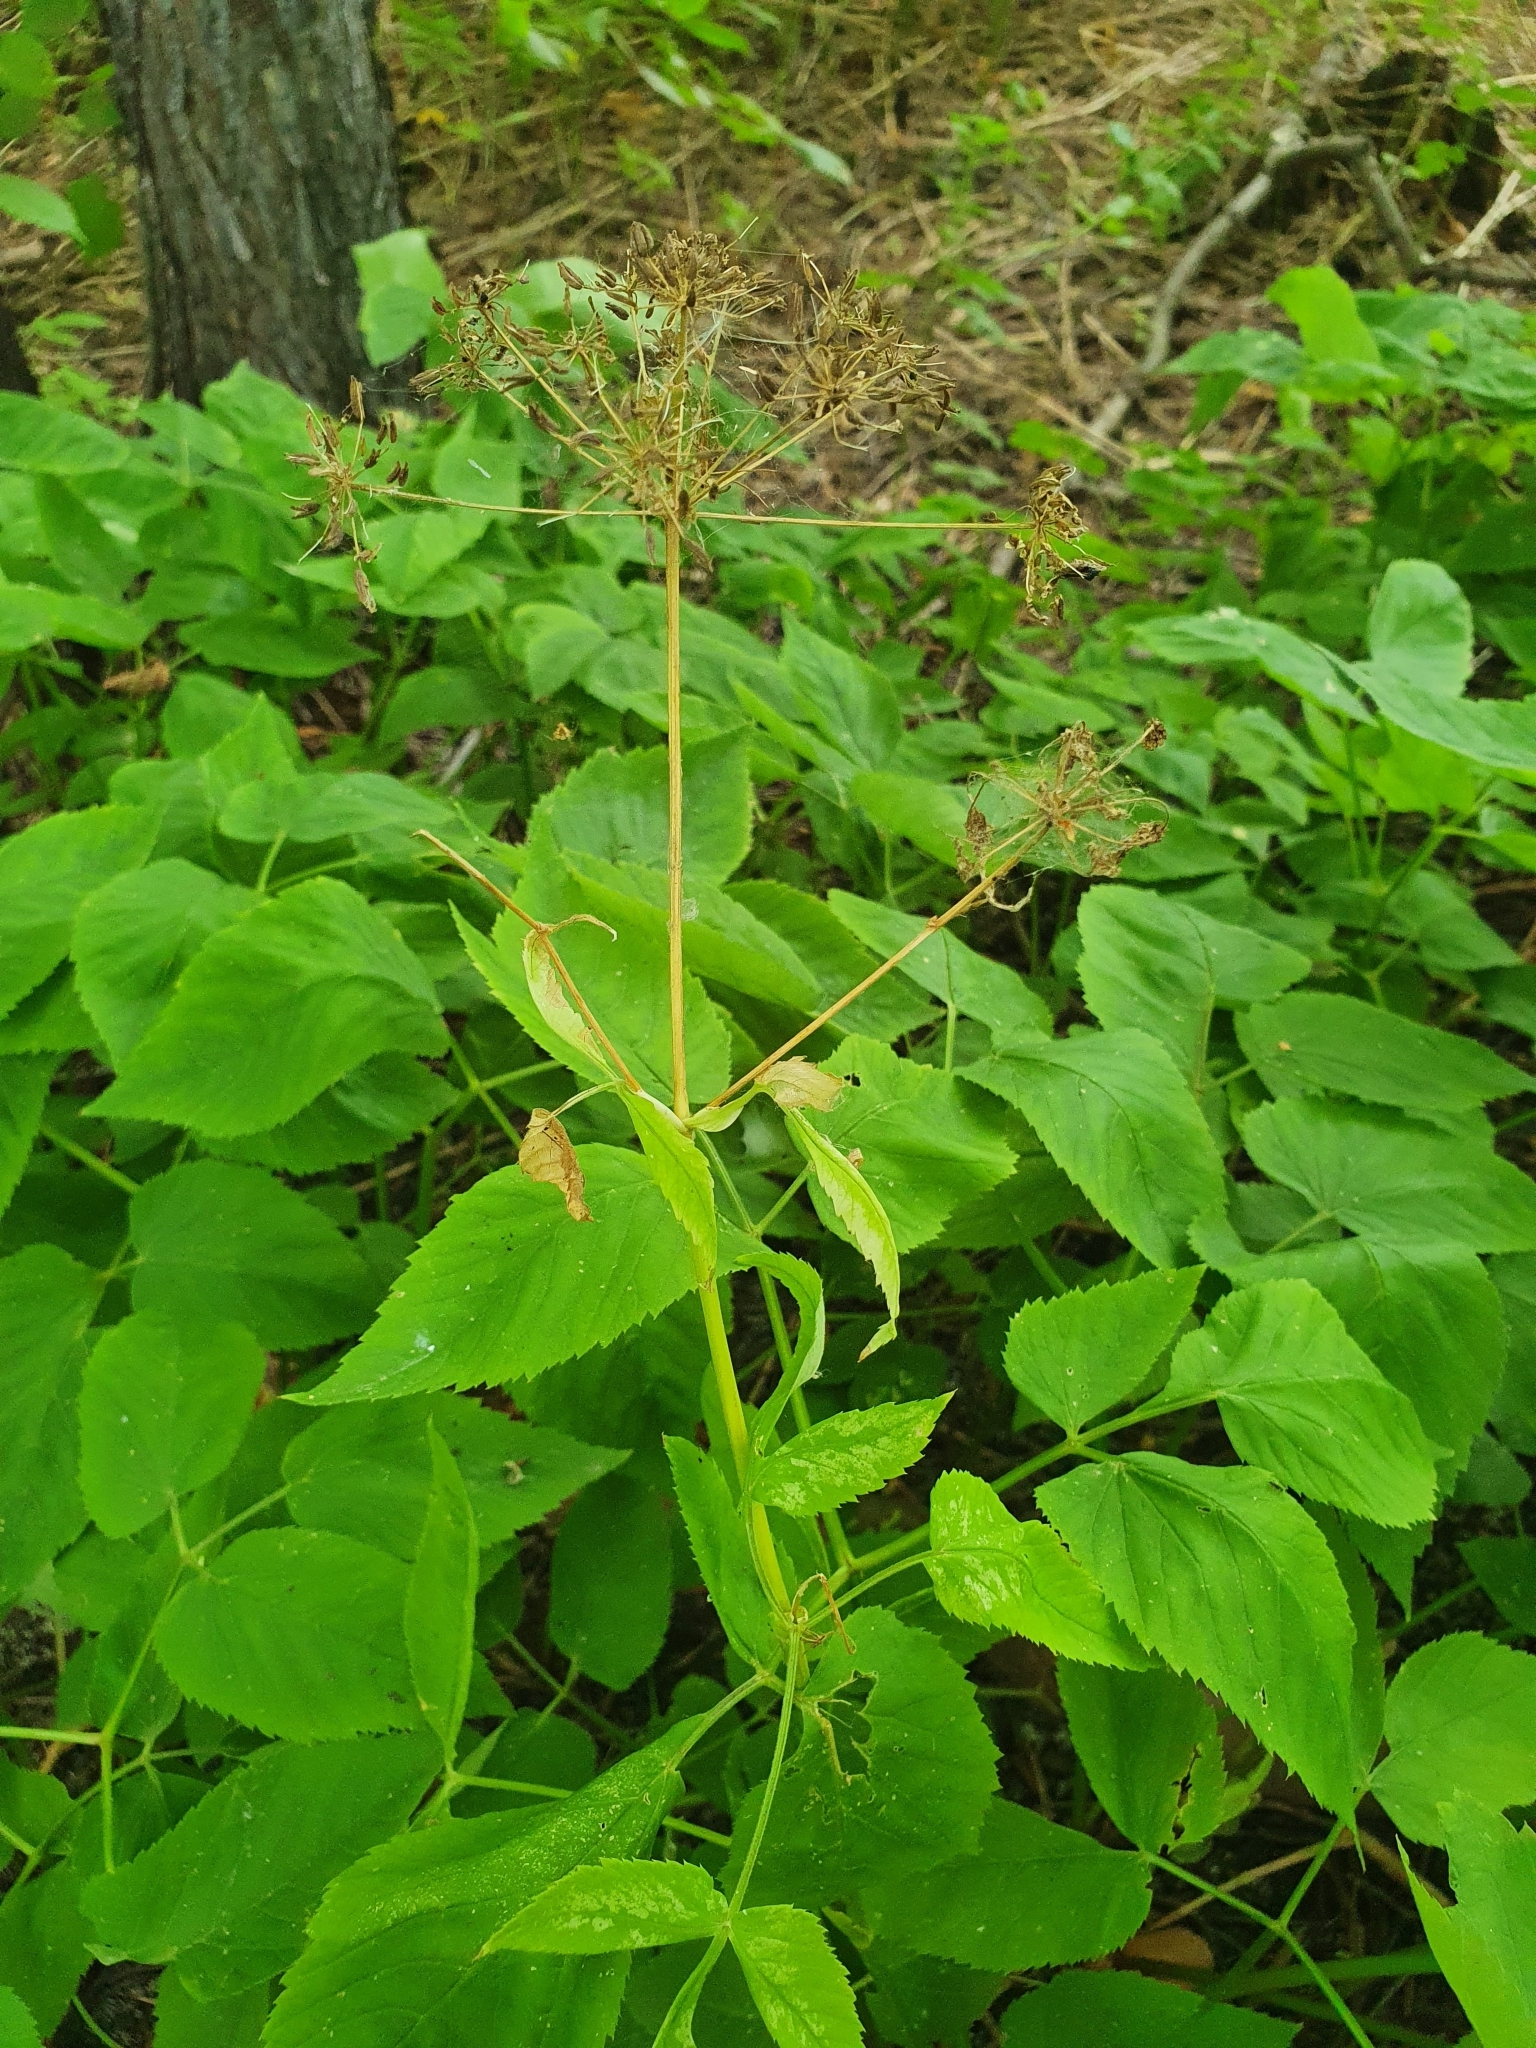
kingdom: Plantae
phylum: Tracheophyta
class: Magnoliopsida
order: Apiales
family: Apiaceae
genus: Aegopodium
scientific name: Aegopodium podagraria
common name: Ground-elder
